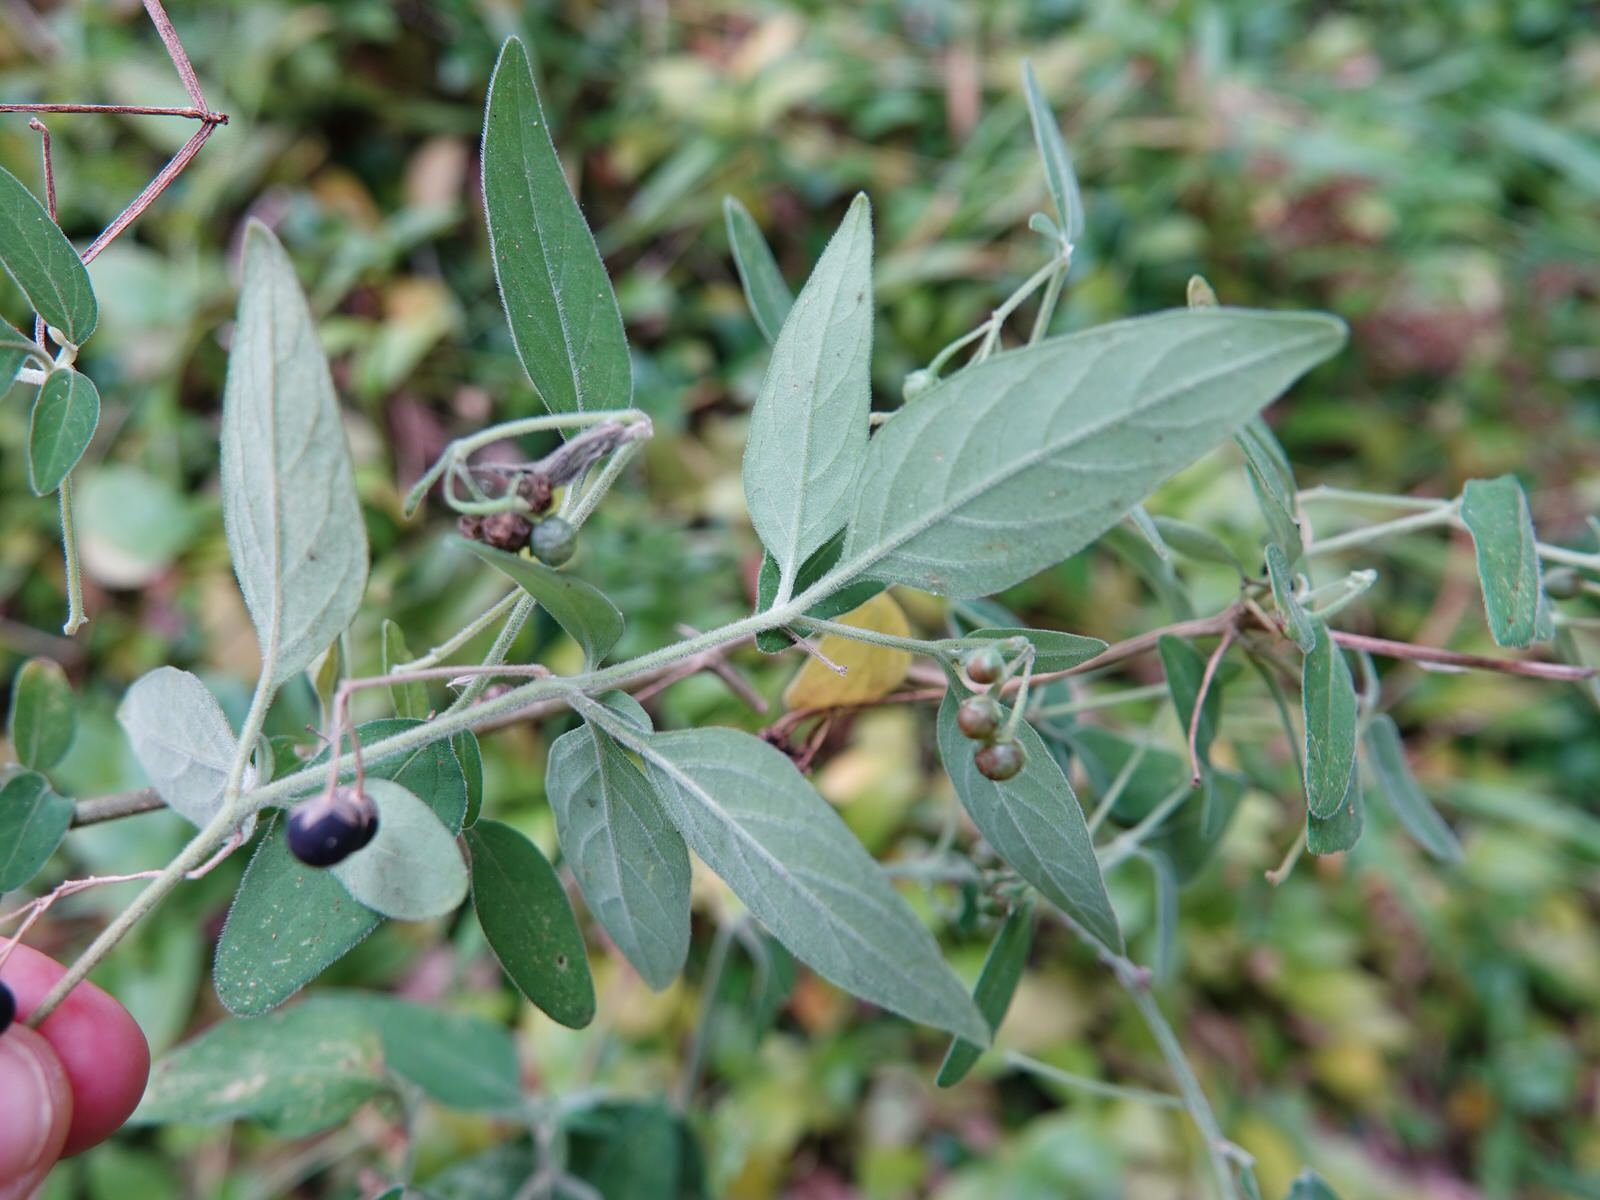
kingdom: Plantae
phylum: Tracheophyta
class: Magnoliopsida
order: Solanales
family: Solanaceae
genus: Solanum
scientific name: Solanum chenopodioides
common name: Tall nightshade
